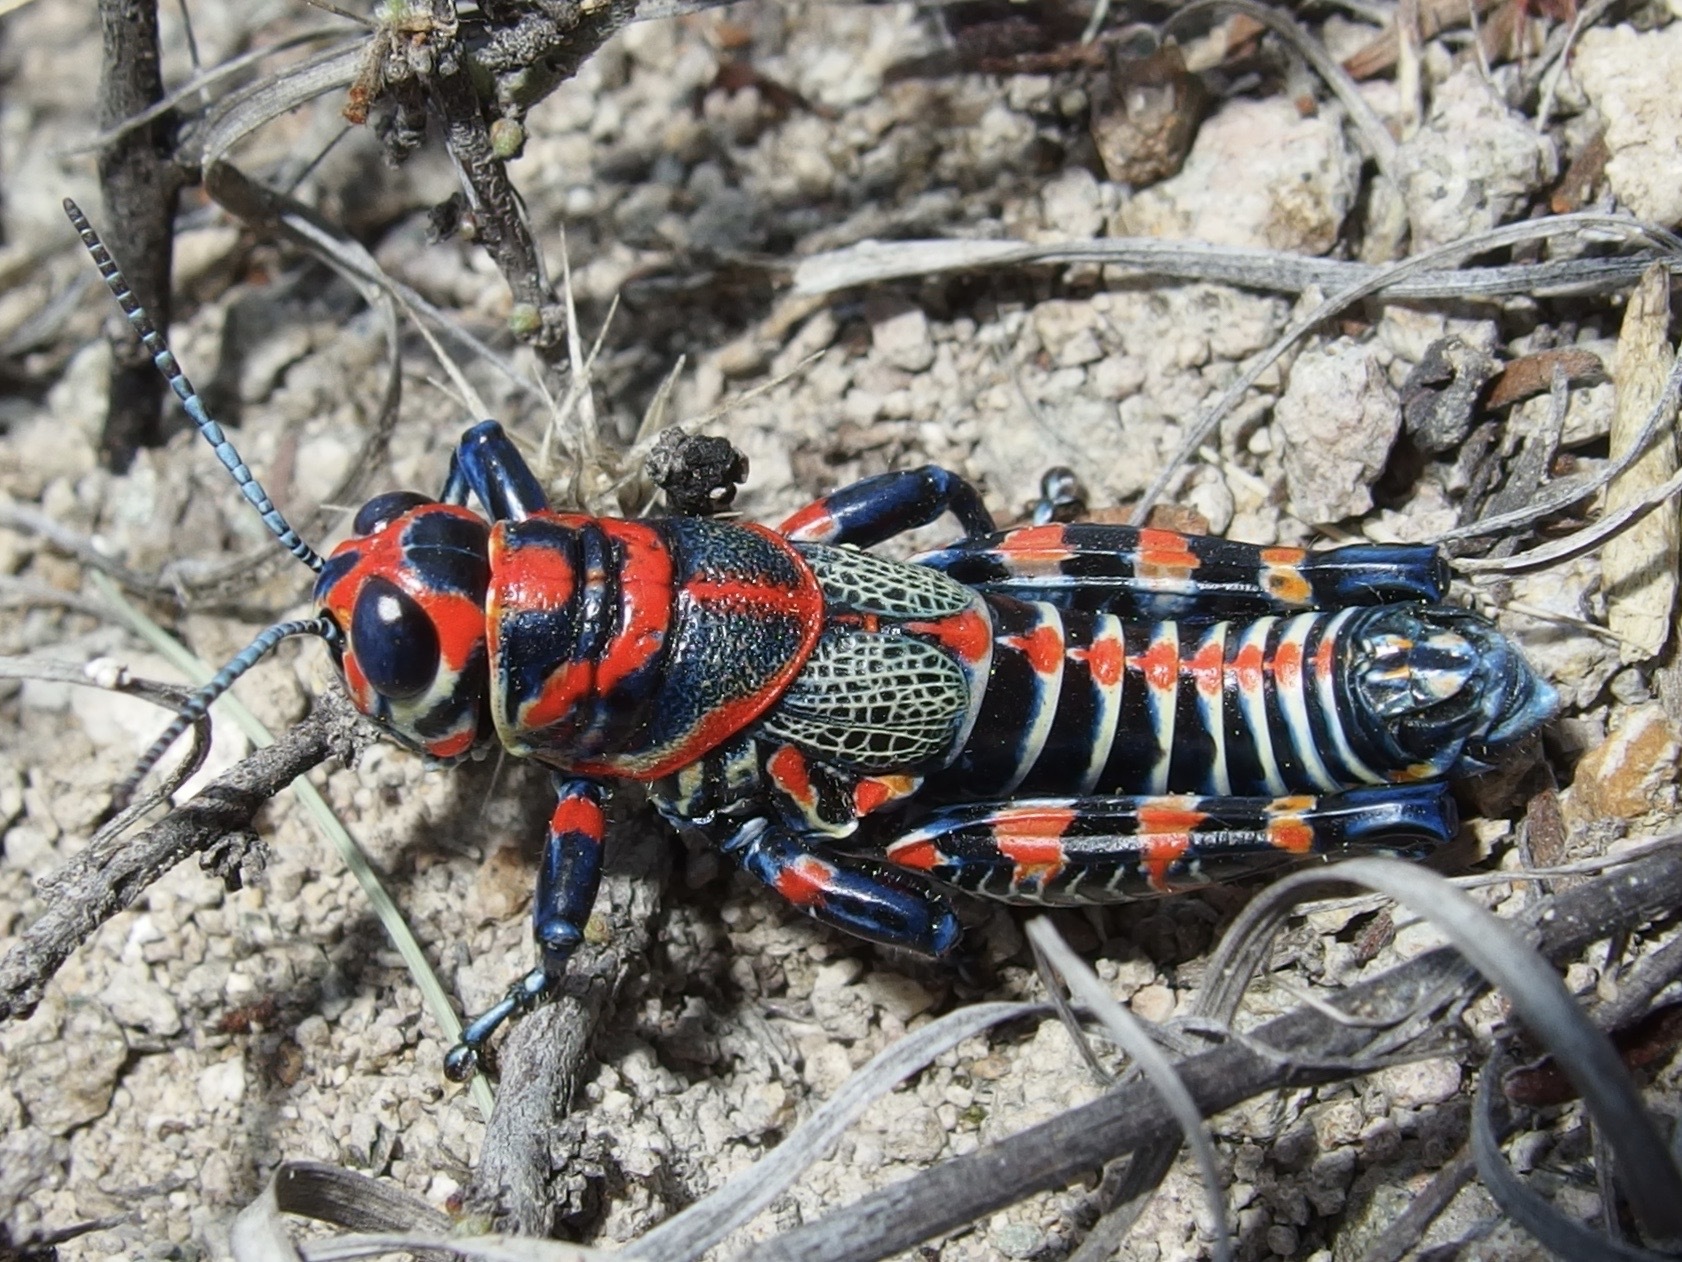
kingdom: Animalia
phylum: Arthropoda
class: Insecta
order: Orthoptera
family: Acrididae
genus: Dactylotum
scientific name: Dactylotum bicolor
